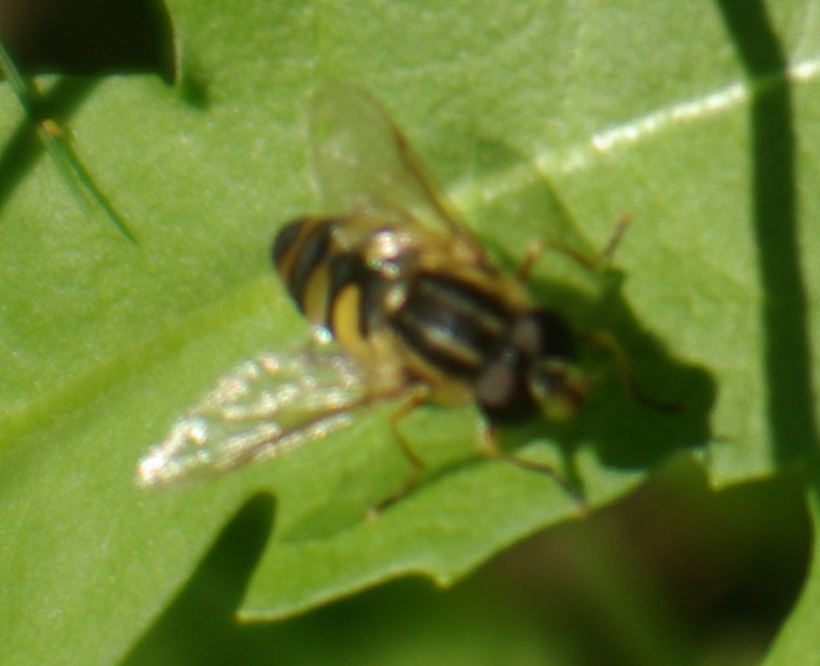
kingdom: Animalia
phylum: Arthropoda
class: Insecta
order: Diptera
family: Syrphidae
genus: Helophilus
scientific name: Helophilus fasciatus
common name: Narrow-headed marsh fly
